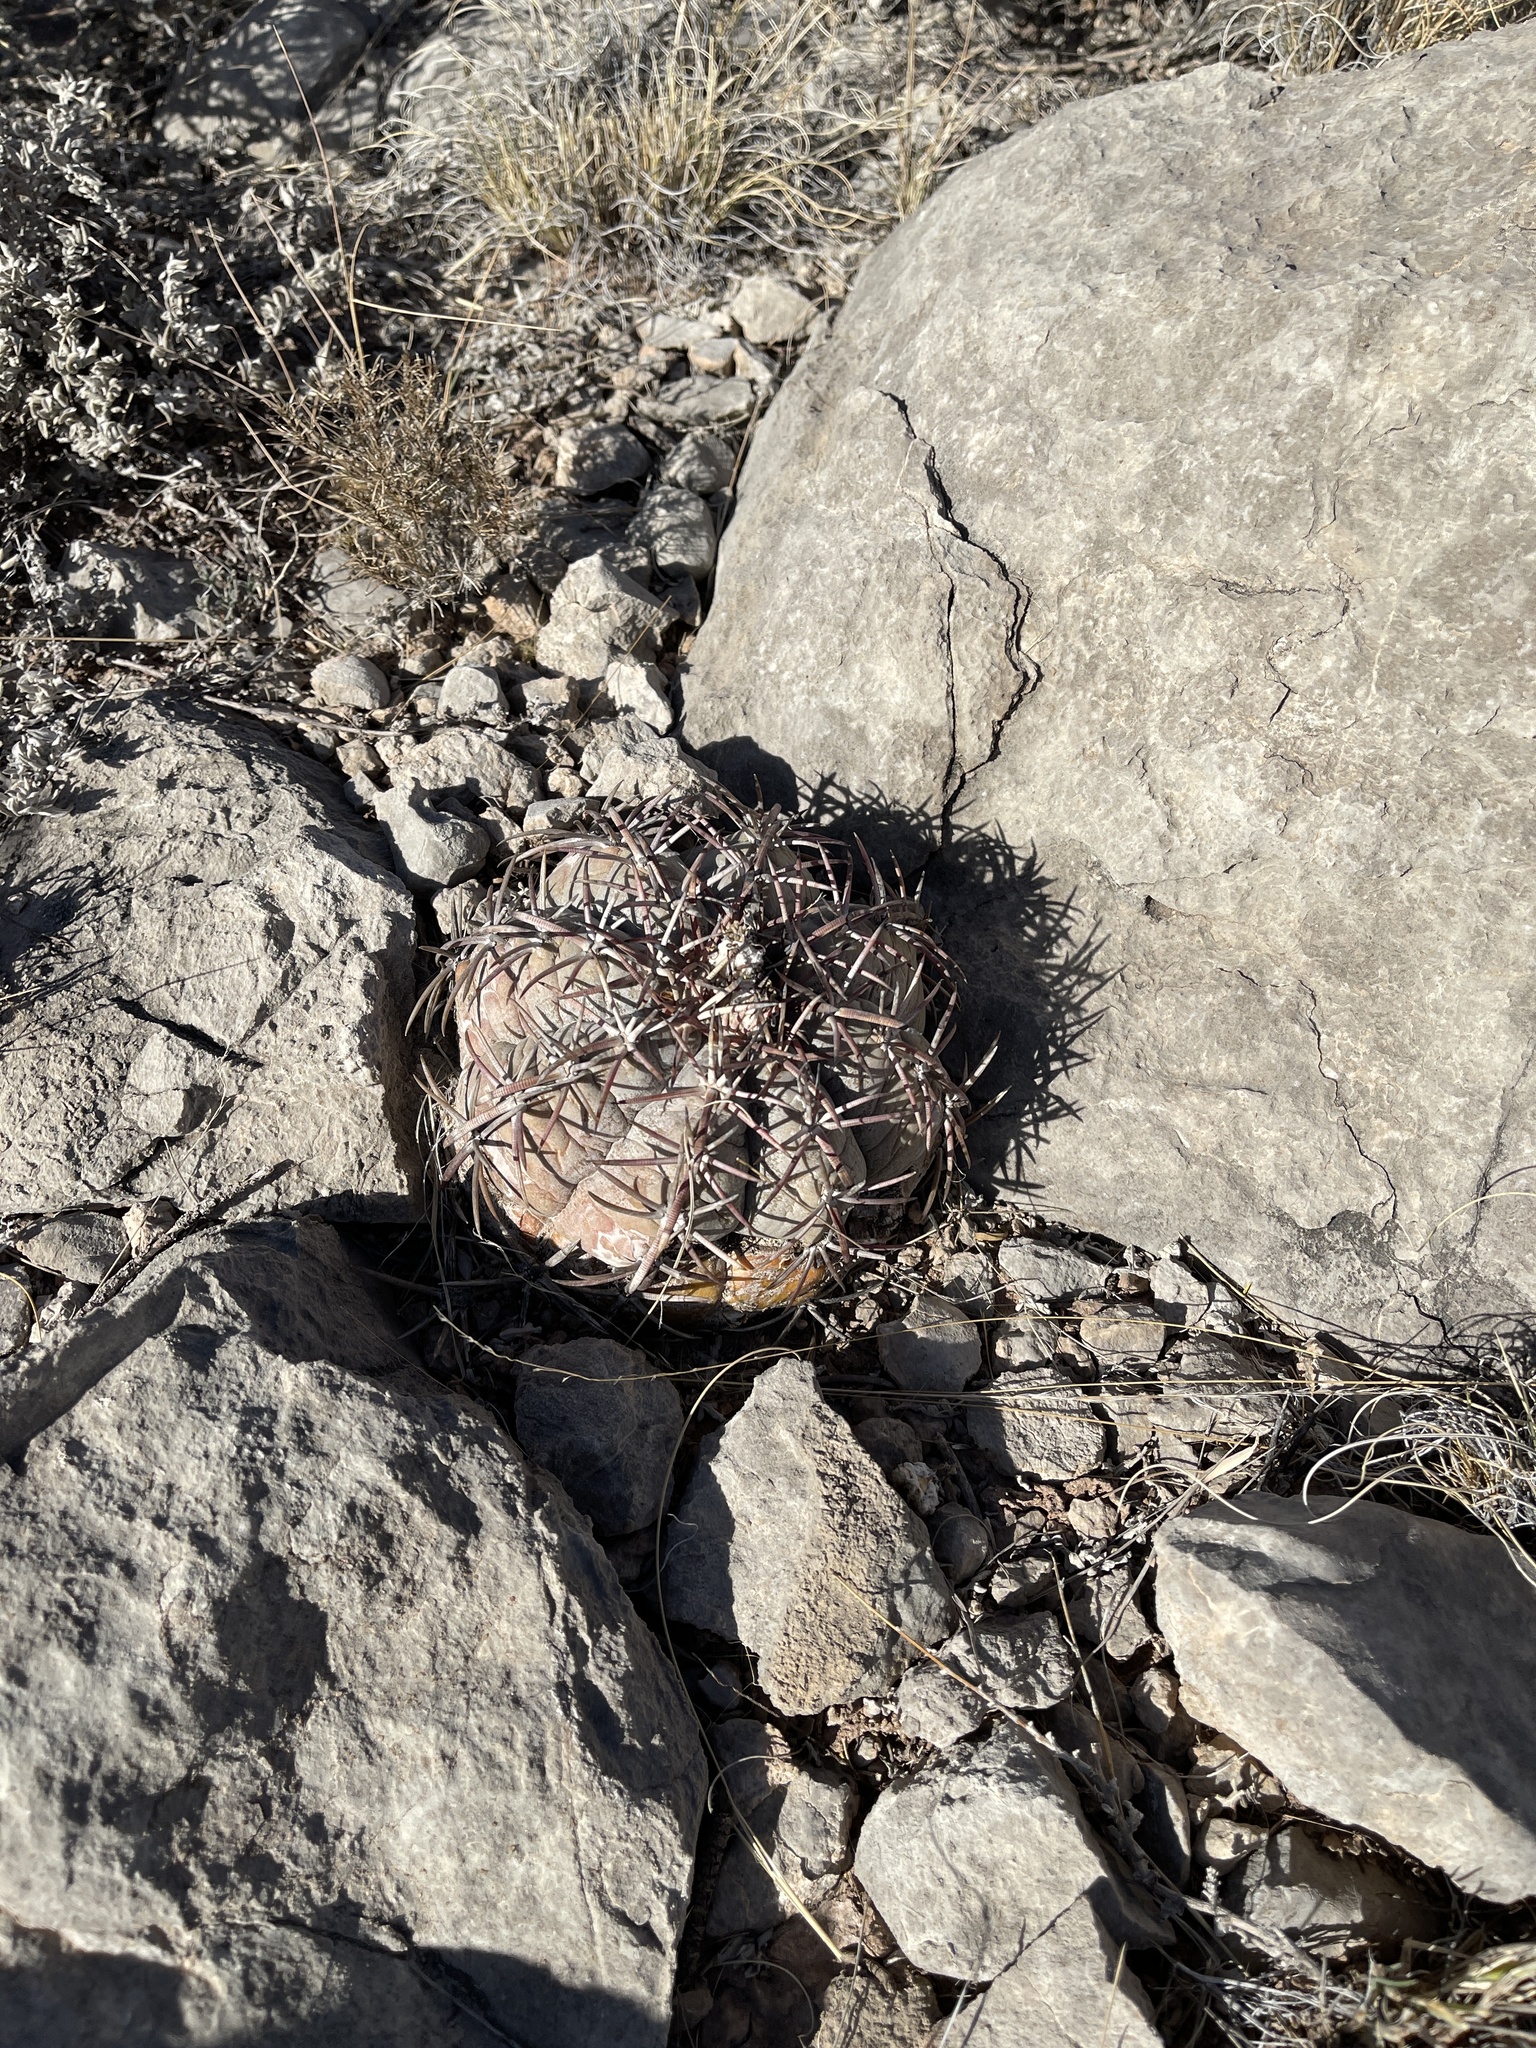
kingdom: Plantae
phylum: Tracheophyta
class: Magnoliopsida
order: Caryophyllales
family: Cactaceae
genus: Echinocactus
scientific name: Echinocactus horizonthalonius
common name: Devilshead
